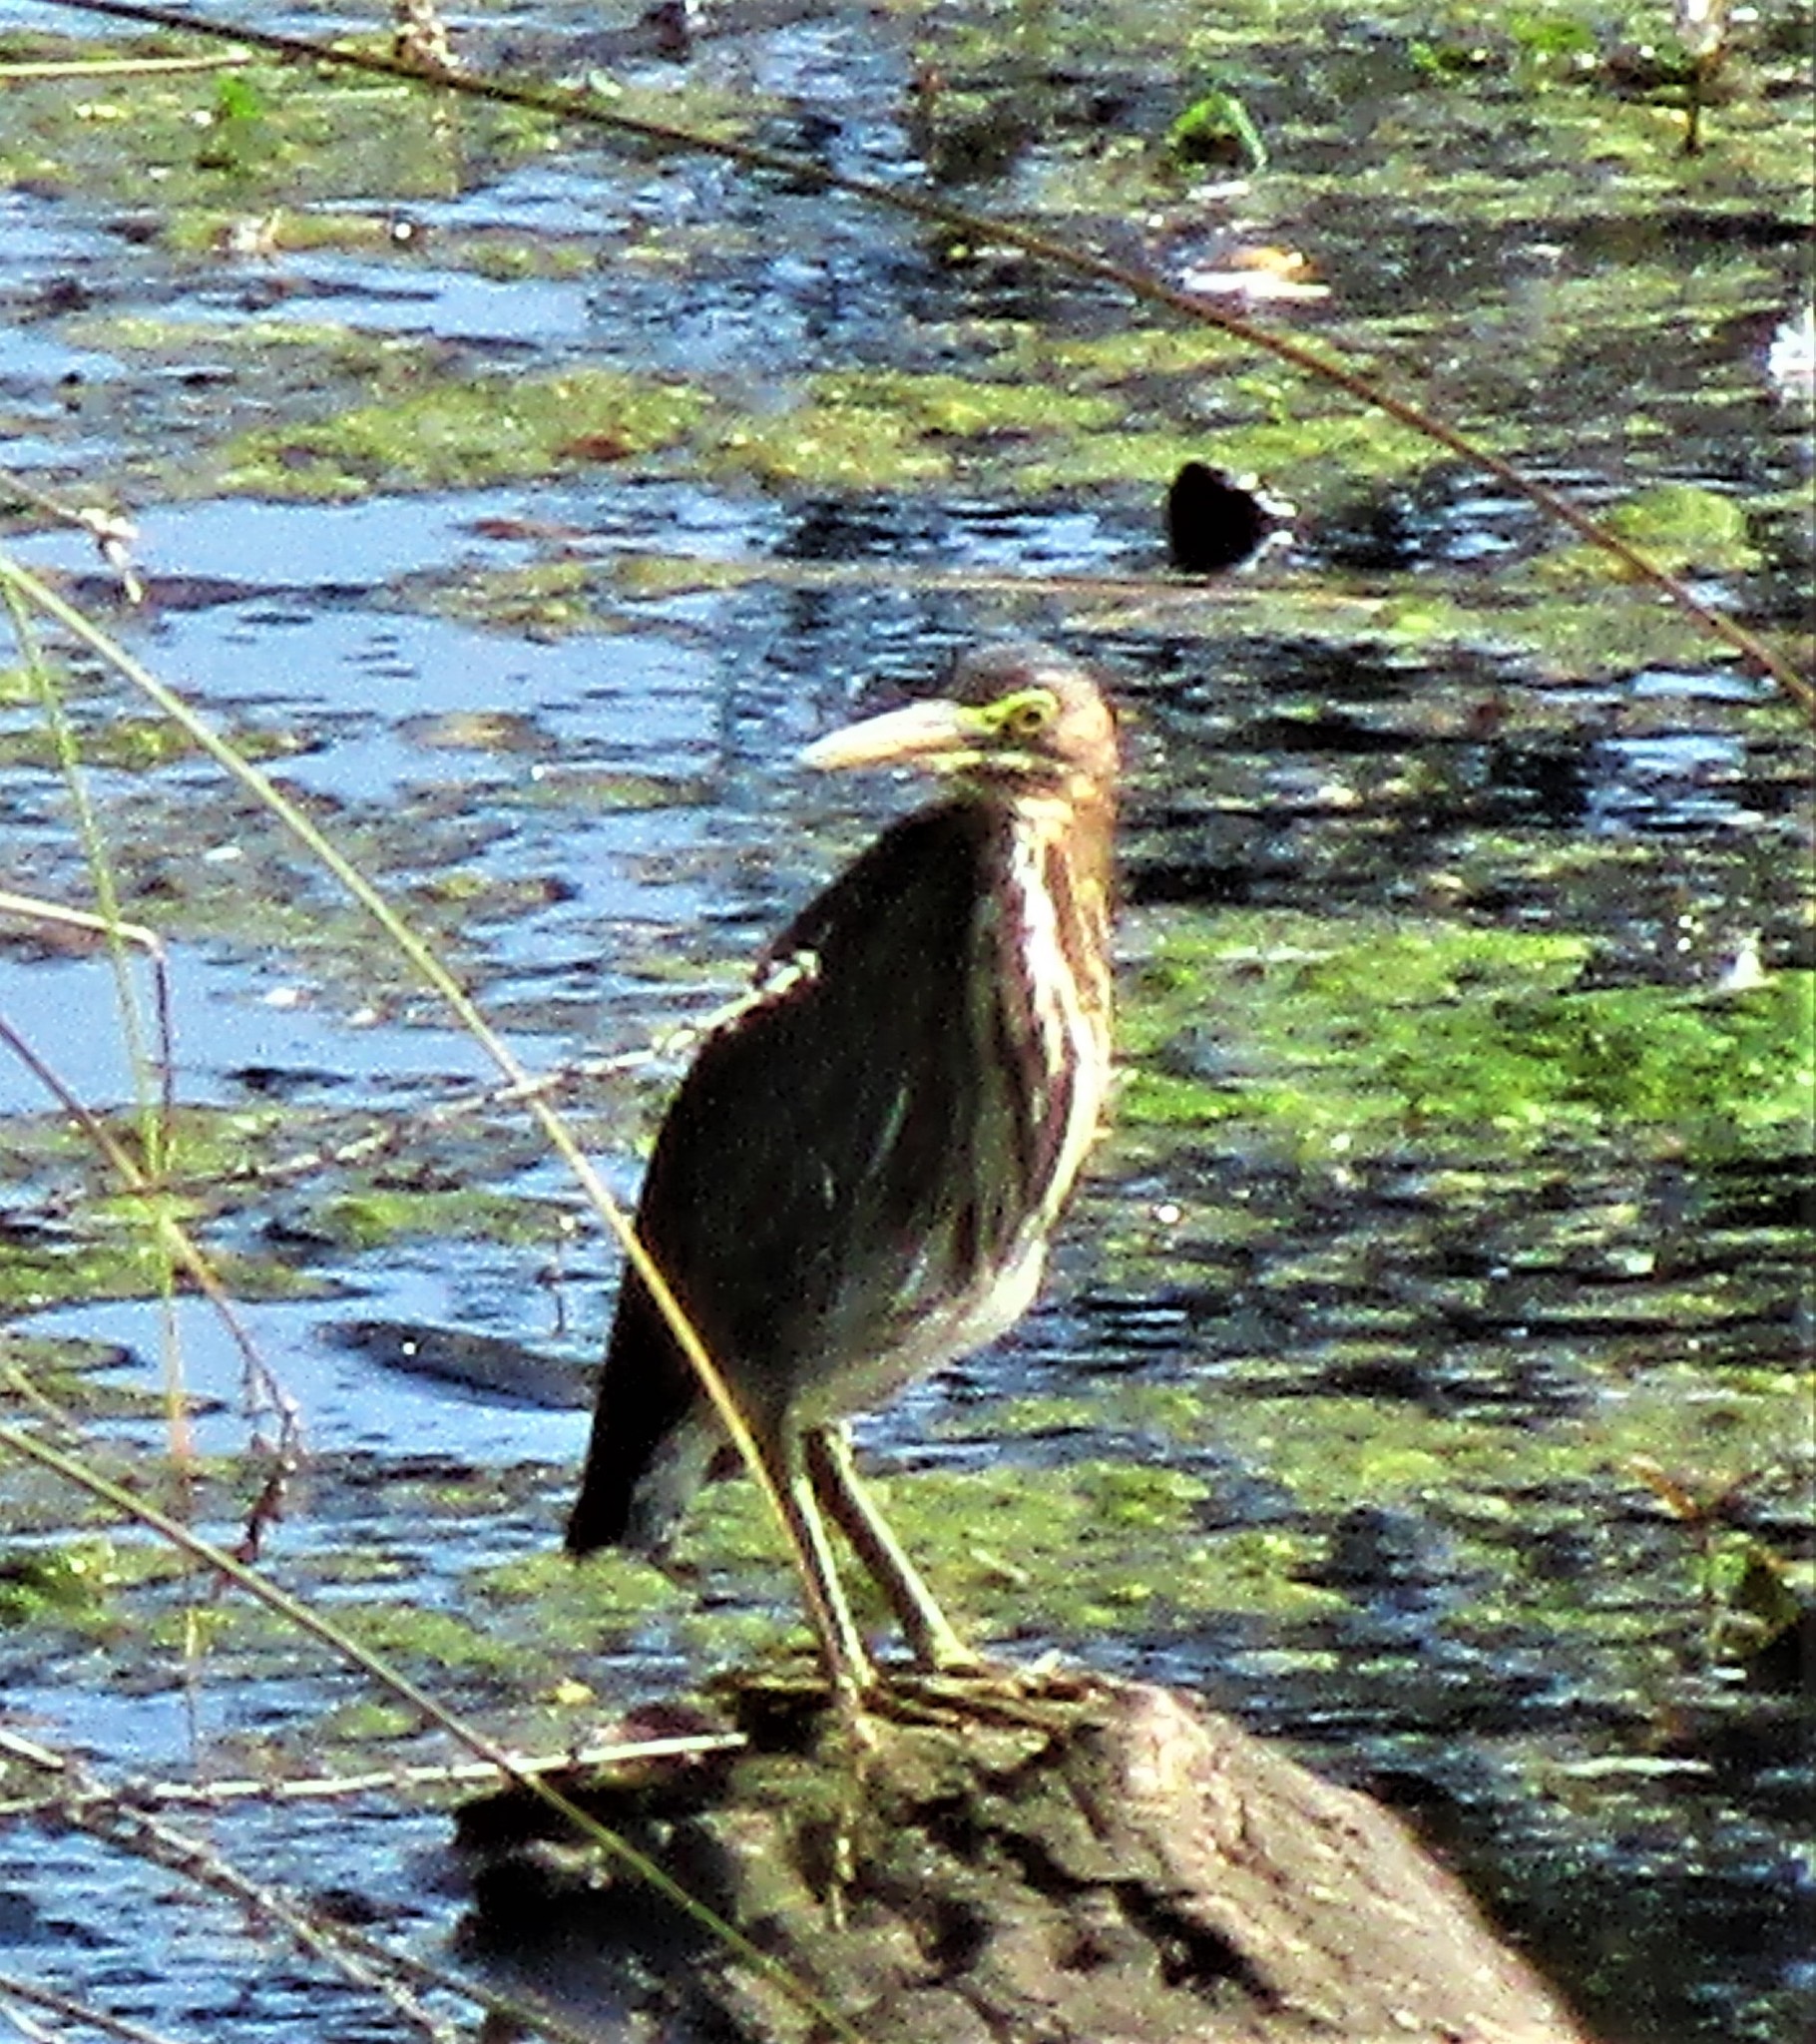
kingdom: Animalia
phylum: Chordata
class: Aves
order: Pelecaniformes
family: Ardeidae
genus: Butorides
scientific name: Butorides virescens
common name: Green heron
